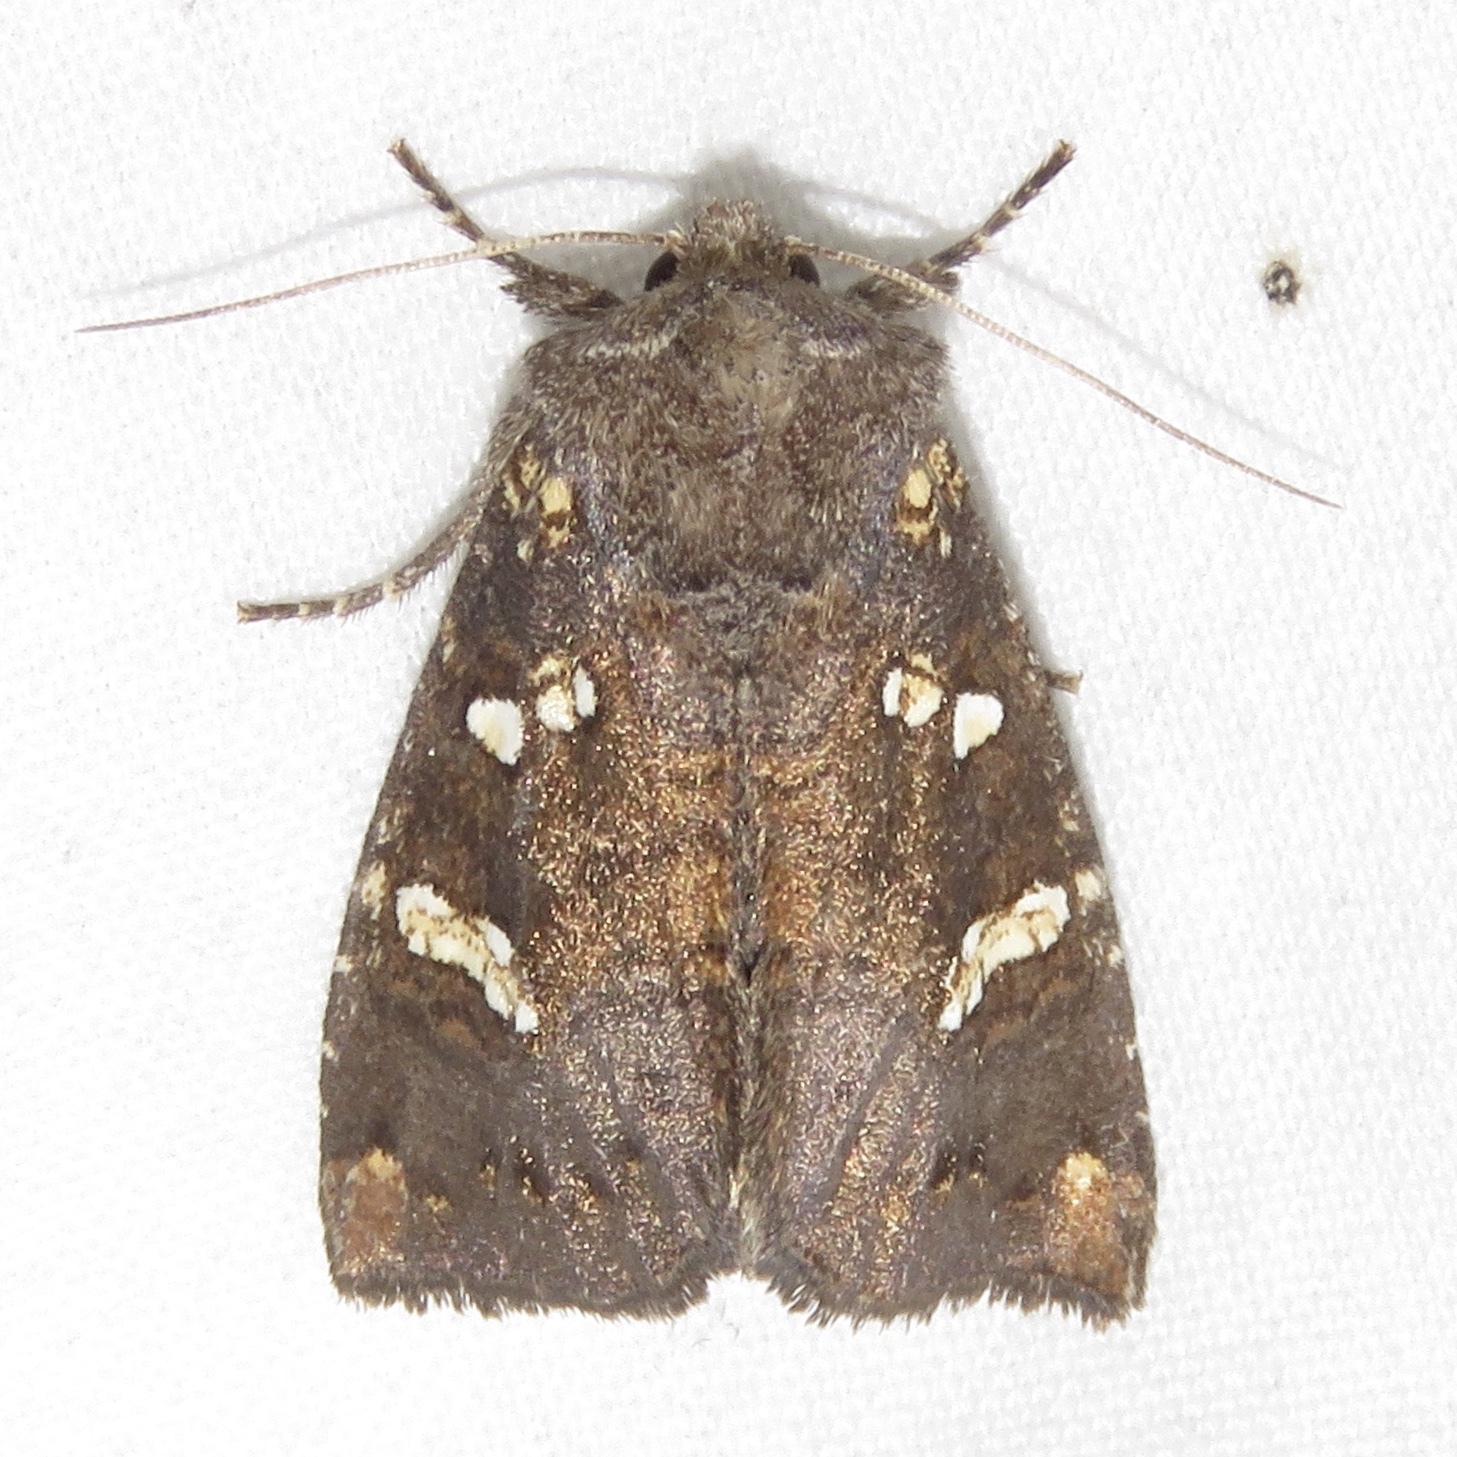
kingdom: Animalia
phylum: Arthropoda
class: Insecta
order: Lepidoptera
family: Noctuidae
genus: Papaipema
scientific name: Papaipema unimoda
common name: Meadow rue borer moth
